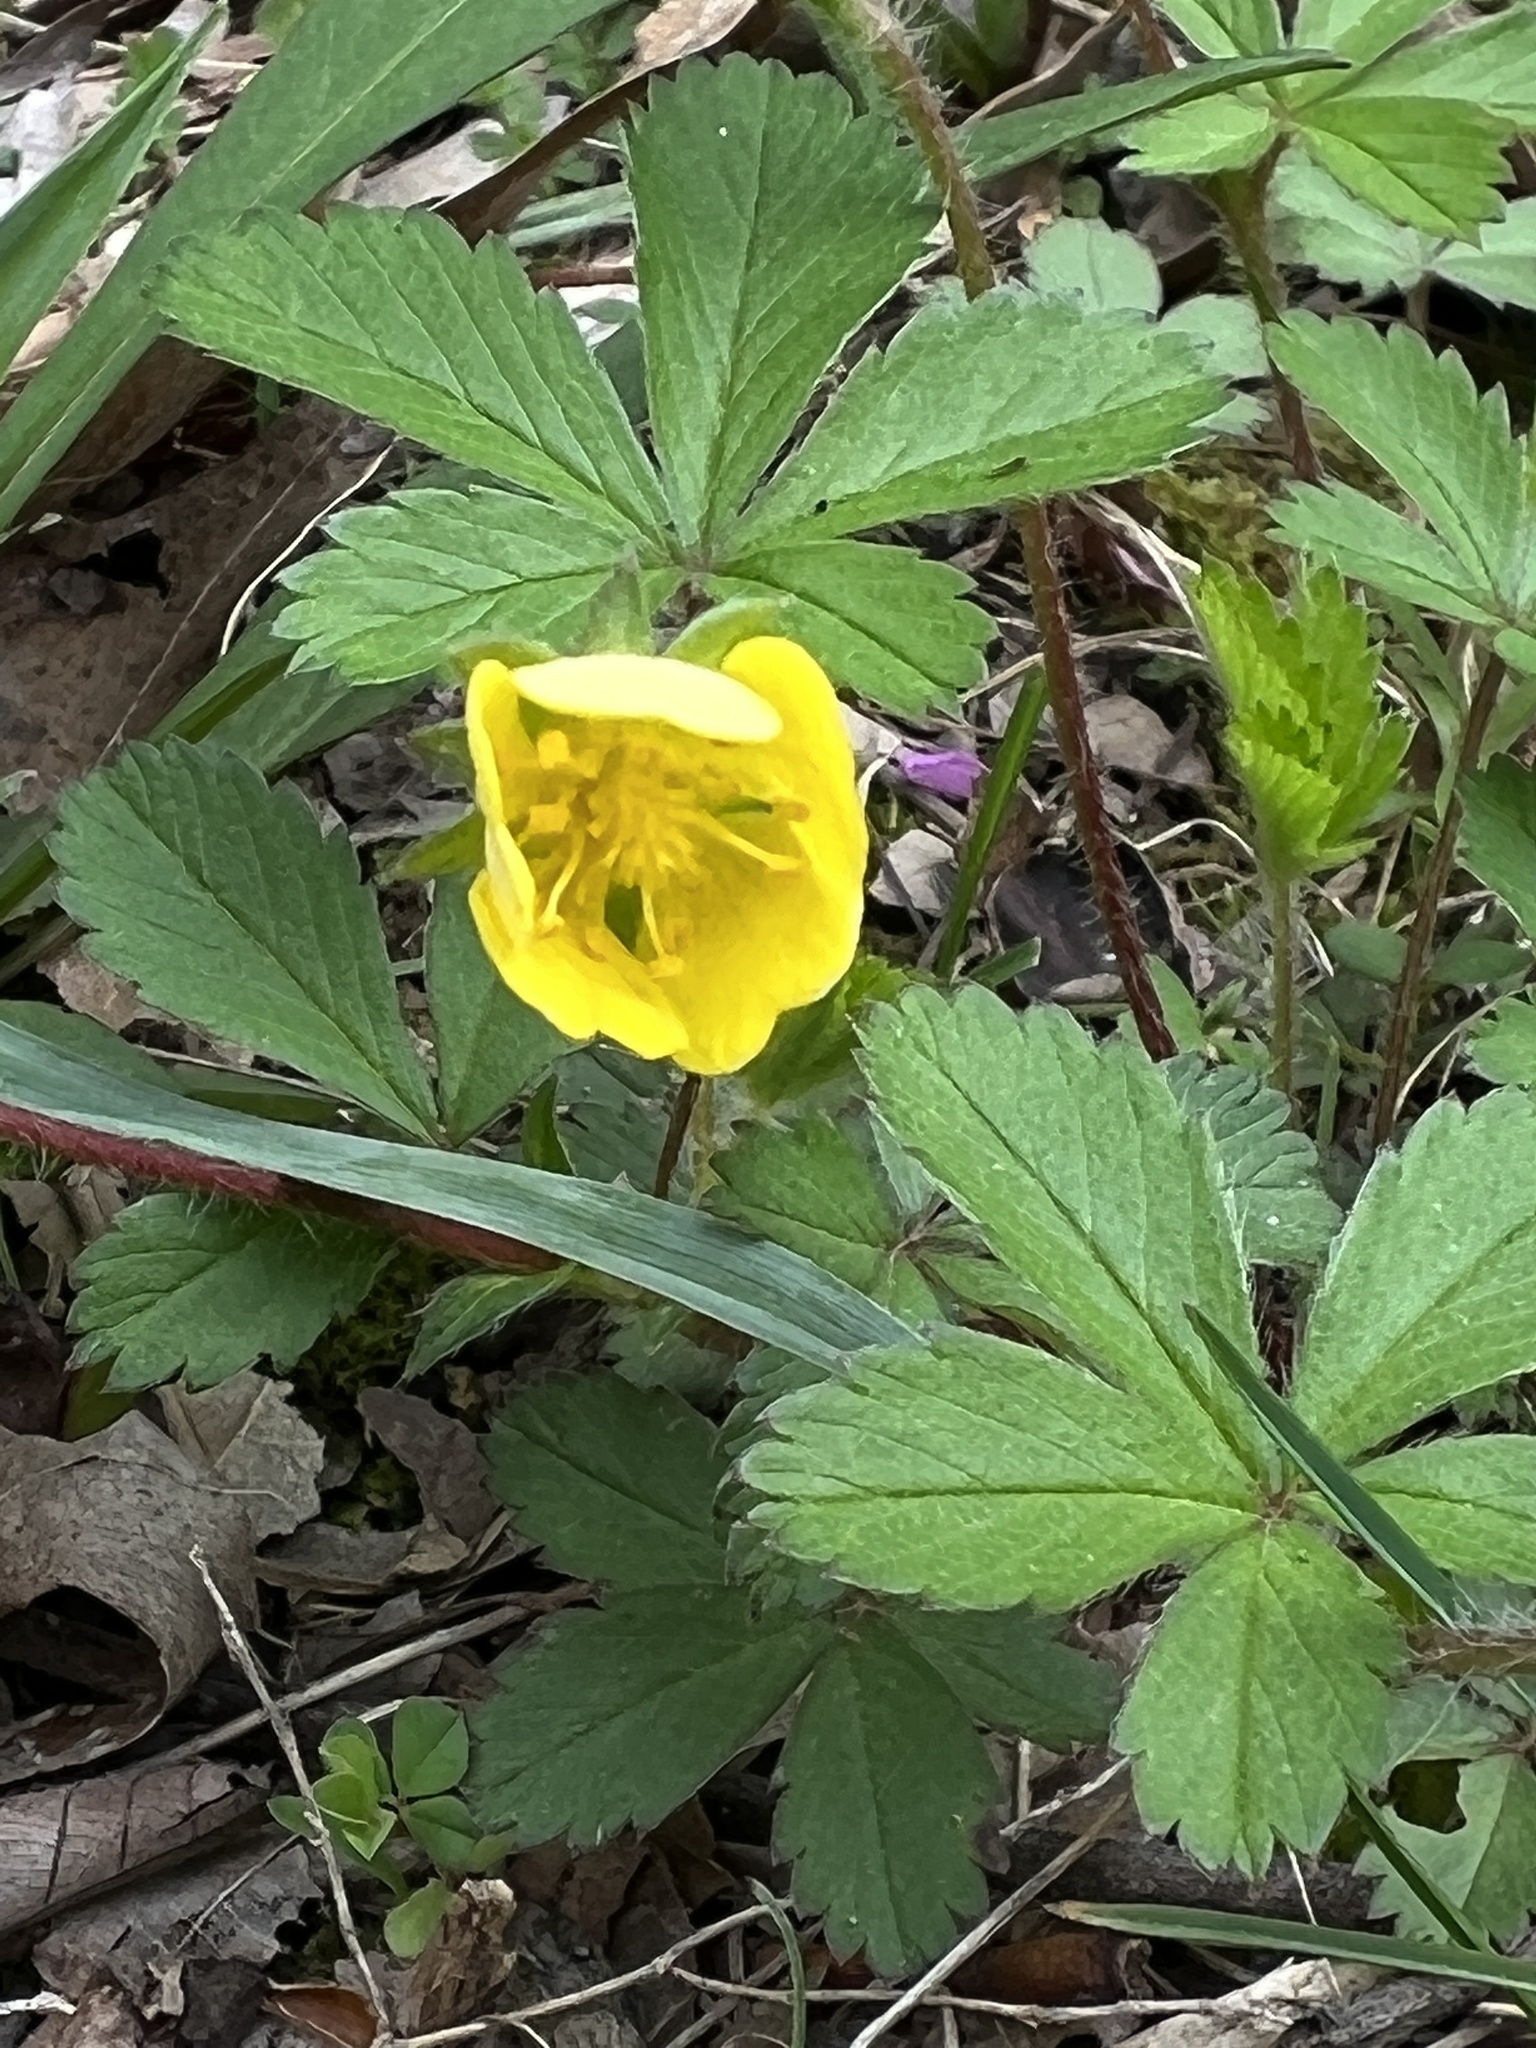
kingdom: Plantae
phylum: Tracheophyta
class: Magnoliopsida
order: Rosales
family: Rosaceae
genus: Potentilla
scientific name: Potentilla canadensis
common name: Canada cinquefoil
